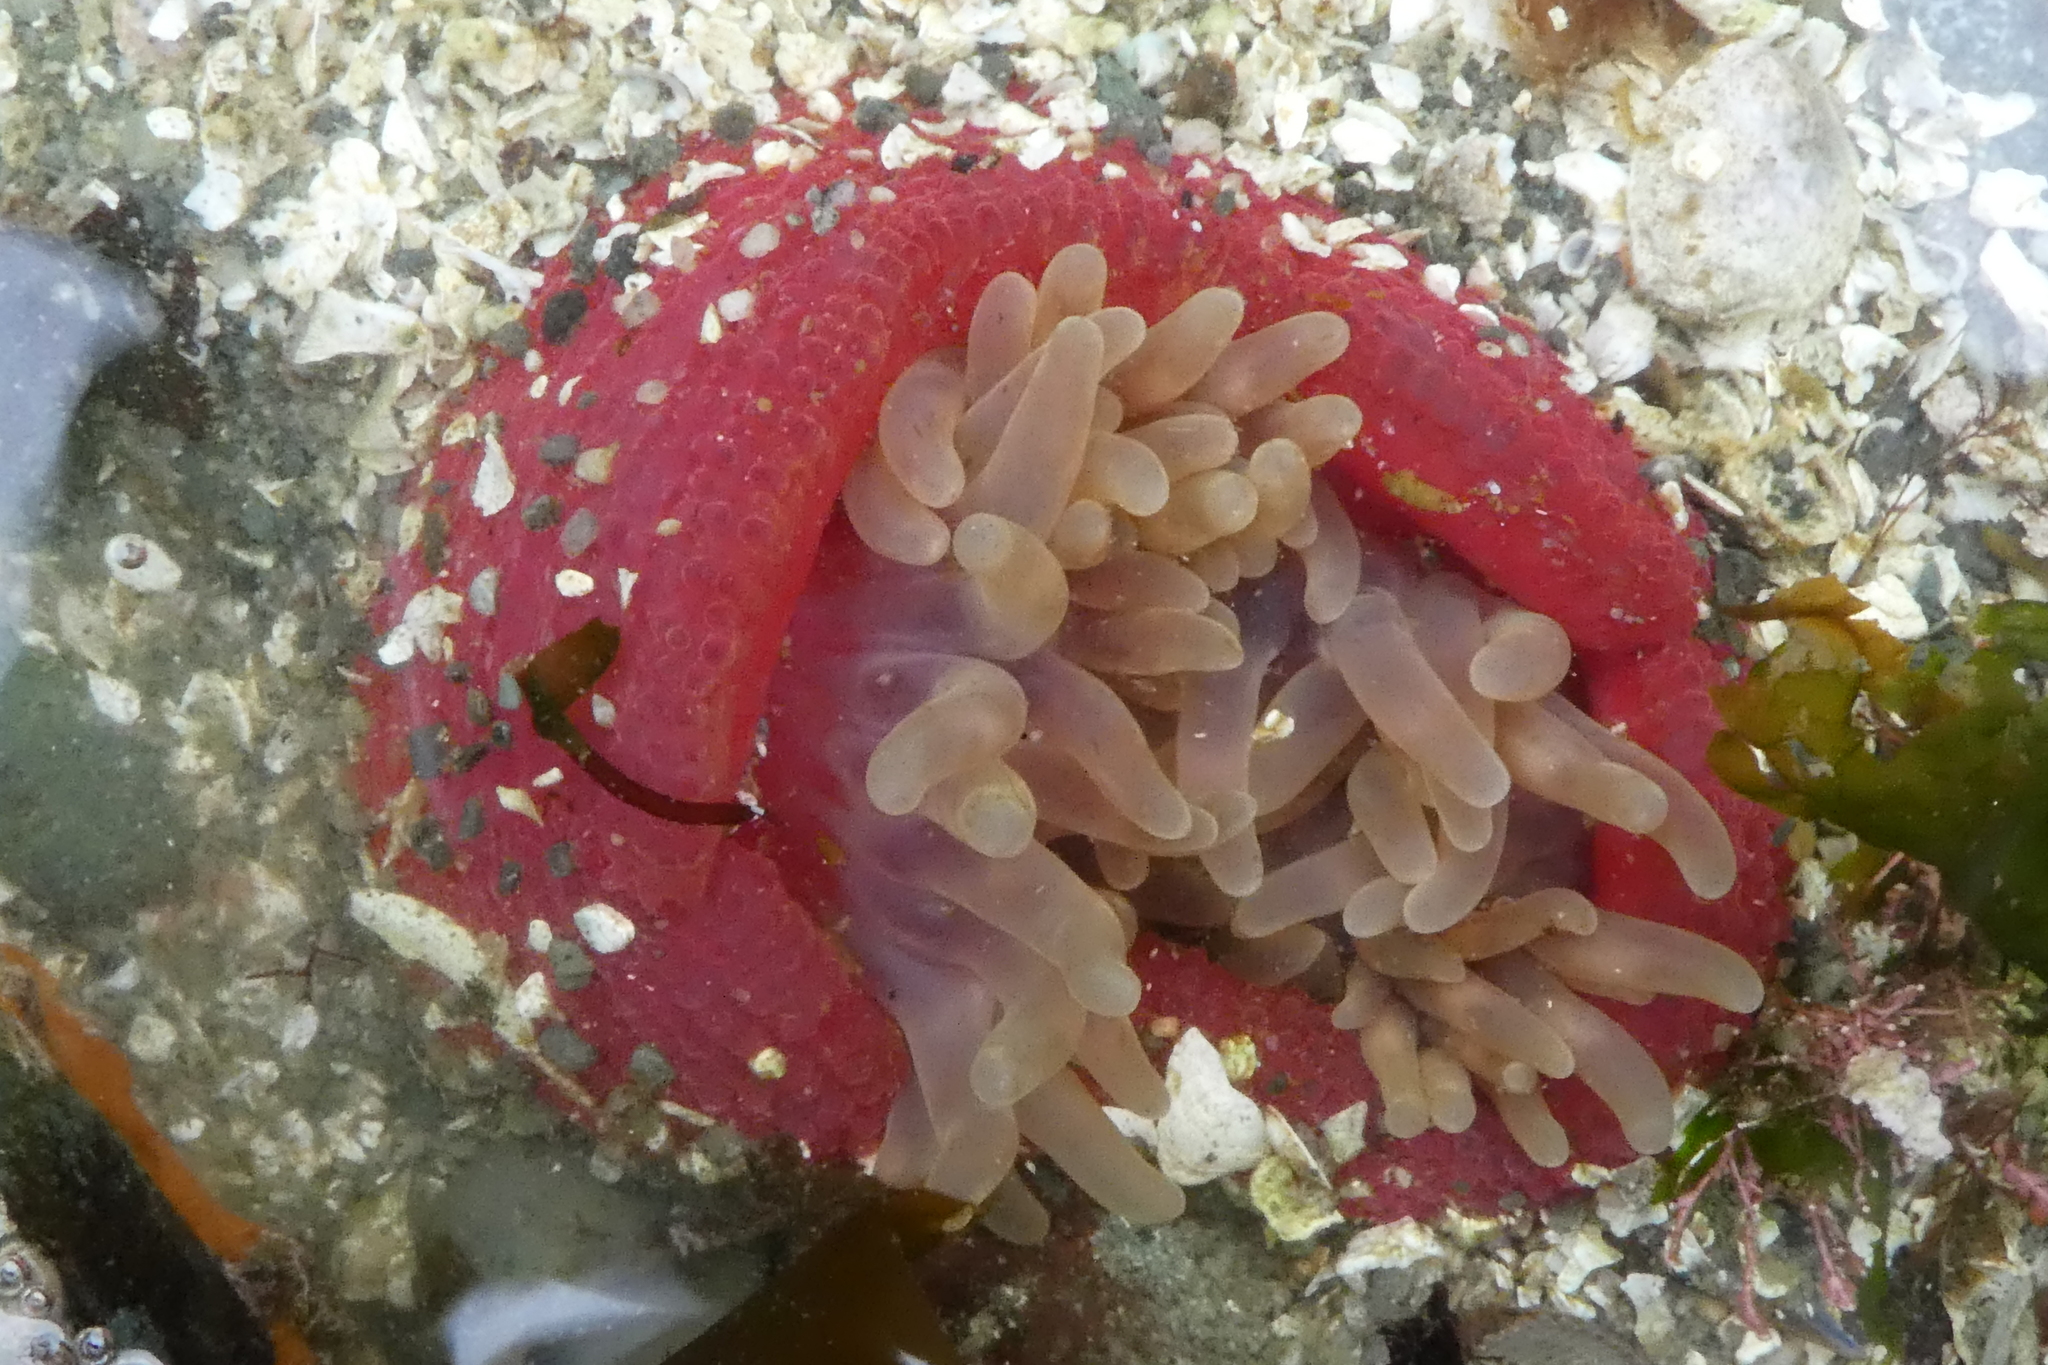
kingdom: Animalia
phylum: Cnidaria
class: Anthozoa
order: Actiniaria
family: Actiniidae
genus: Urticina
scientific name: Urticina clandestina
